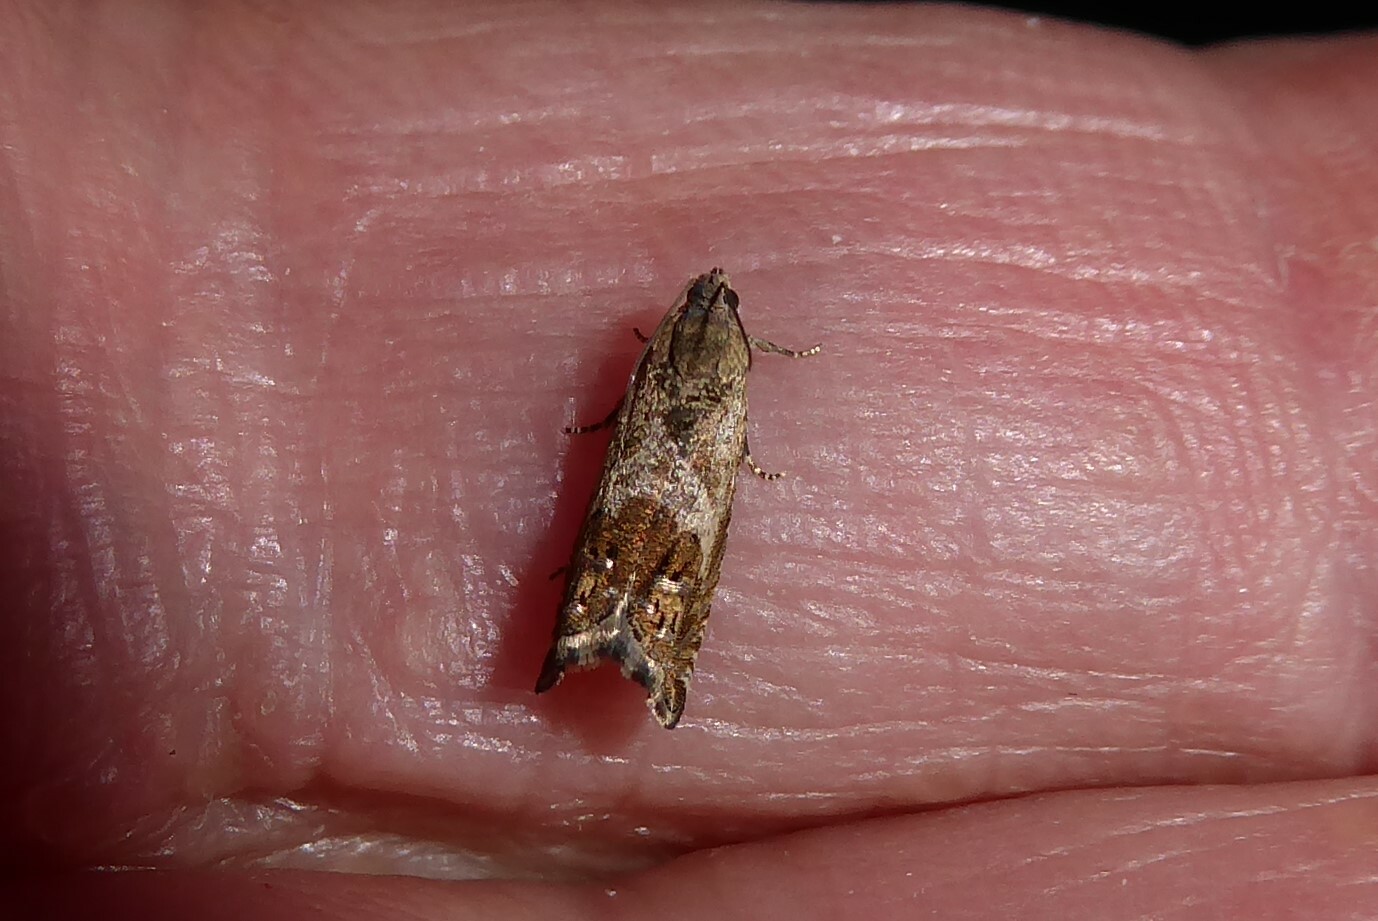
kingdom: Animalia
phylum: Arthropoda
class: Insecta
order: Lepidoptera
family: Tortricidae
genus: Cydia
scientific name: Cydia succedana
